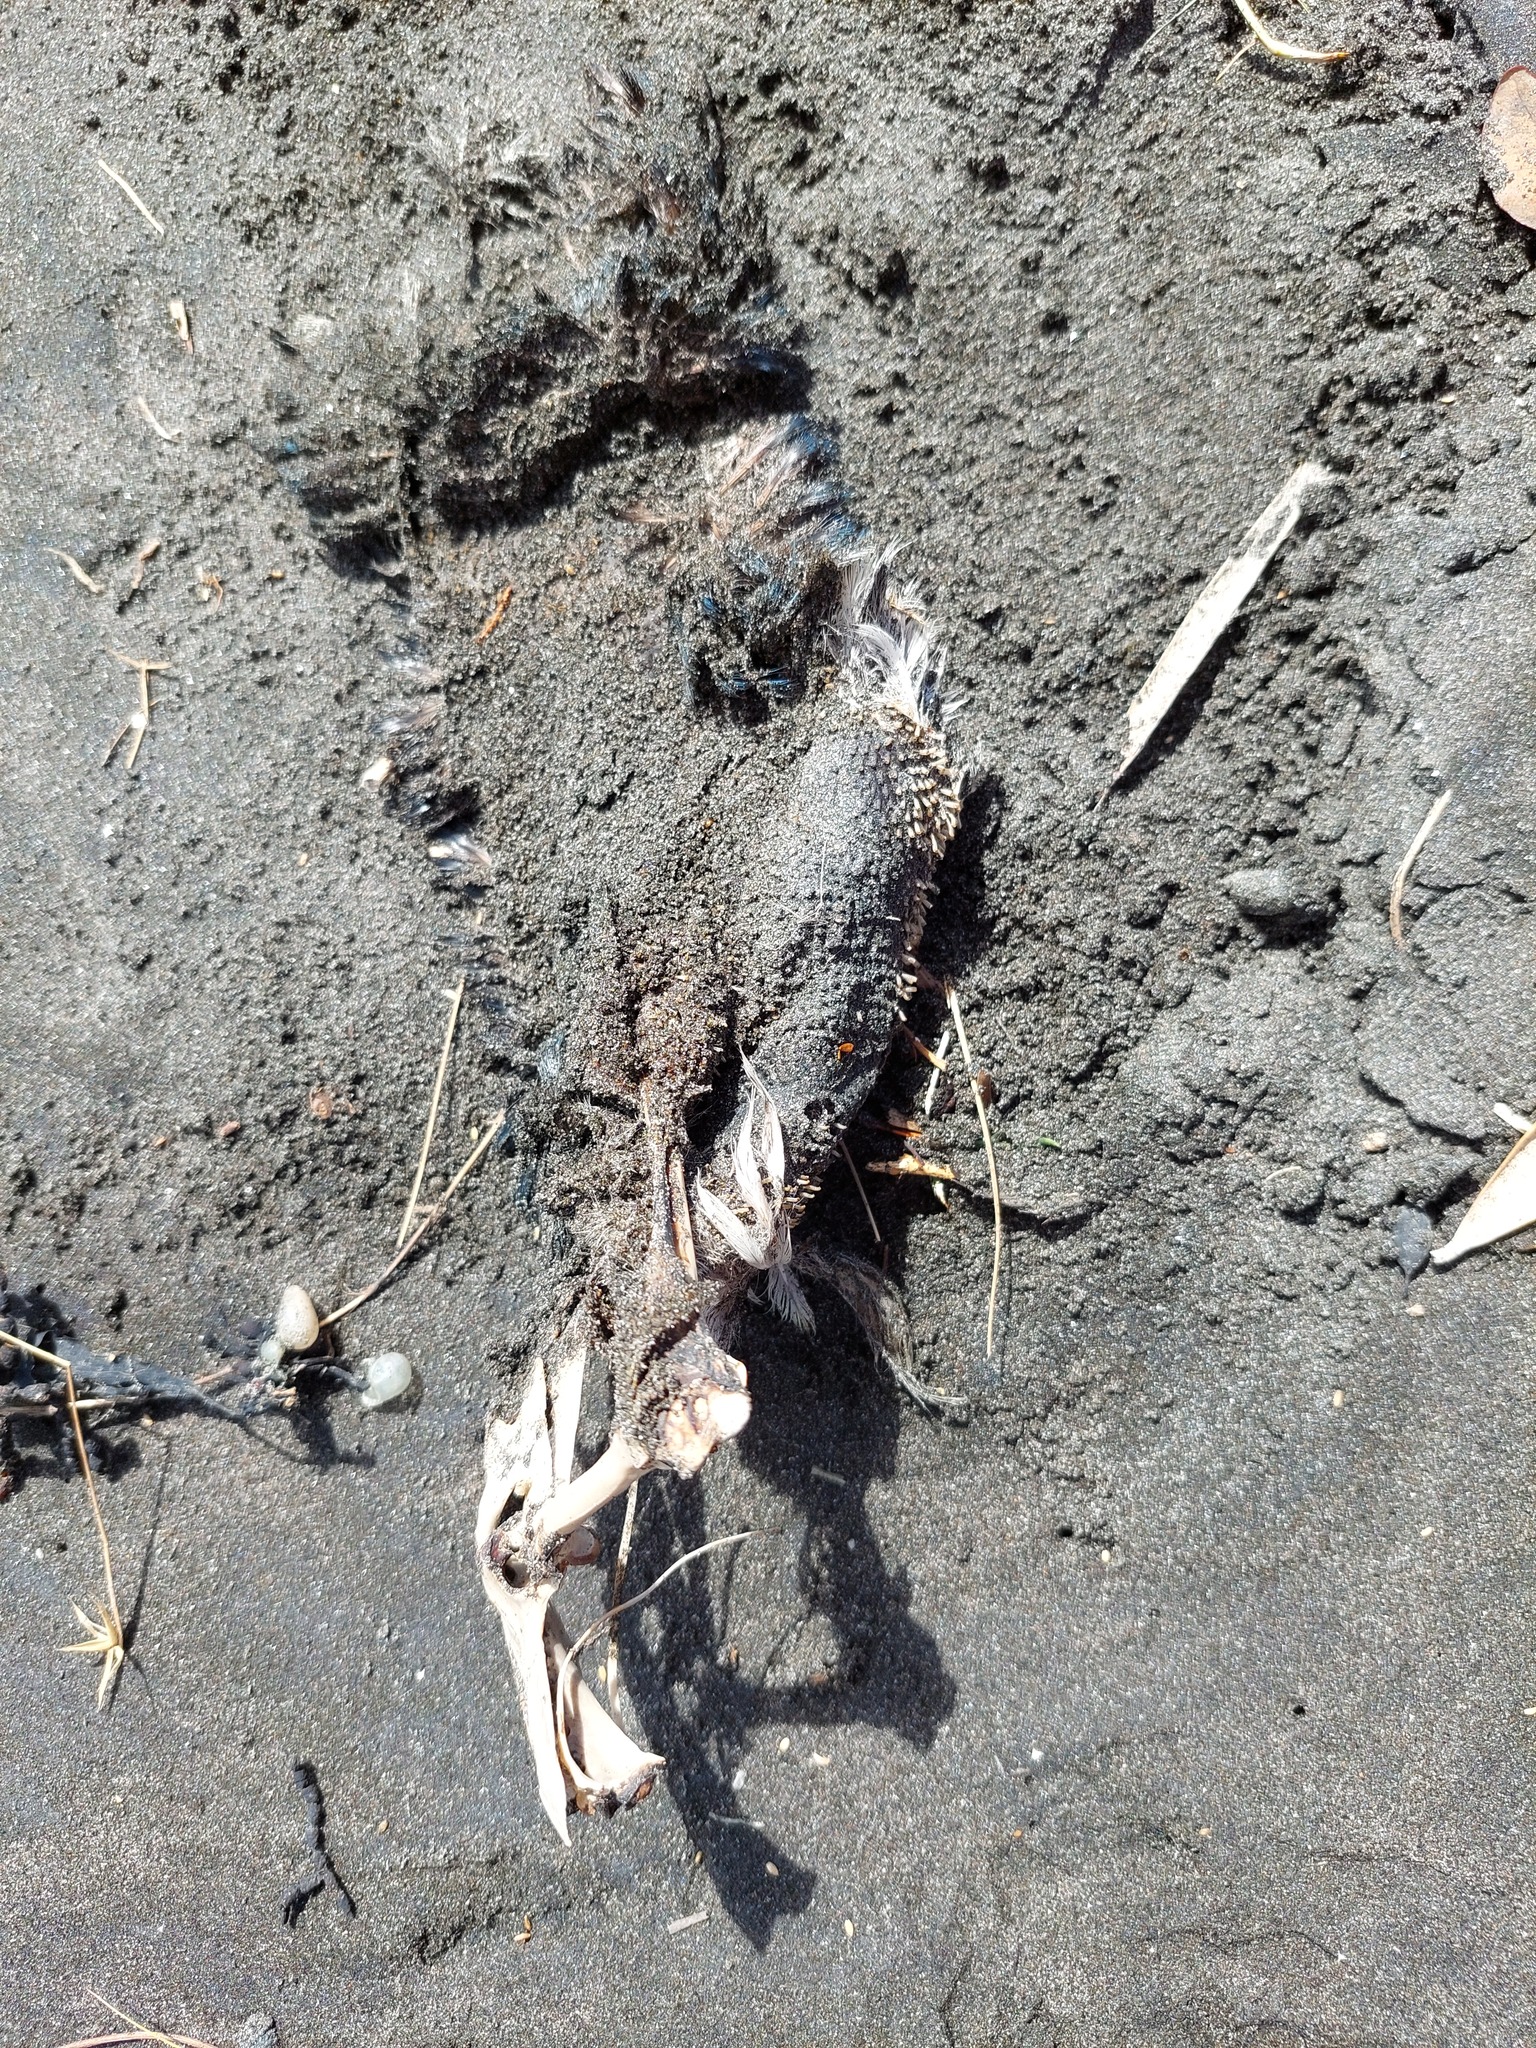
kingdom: Animalia
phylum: Chordata
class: Aves
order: Sphenisciformes
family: Spheniscidae
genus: Eudyptula
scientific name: Eudyptula minor
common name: Little penguin
